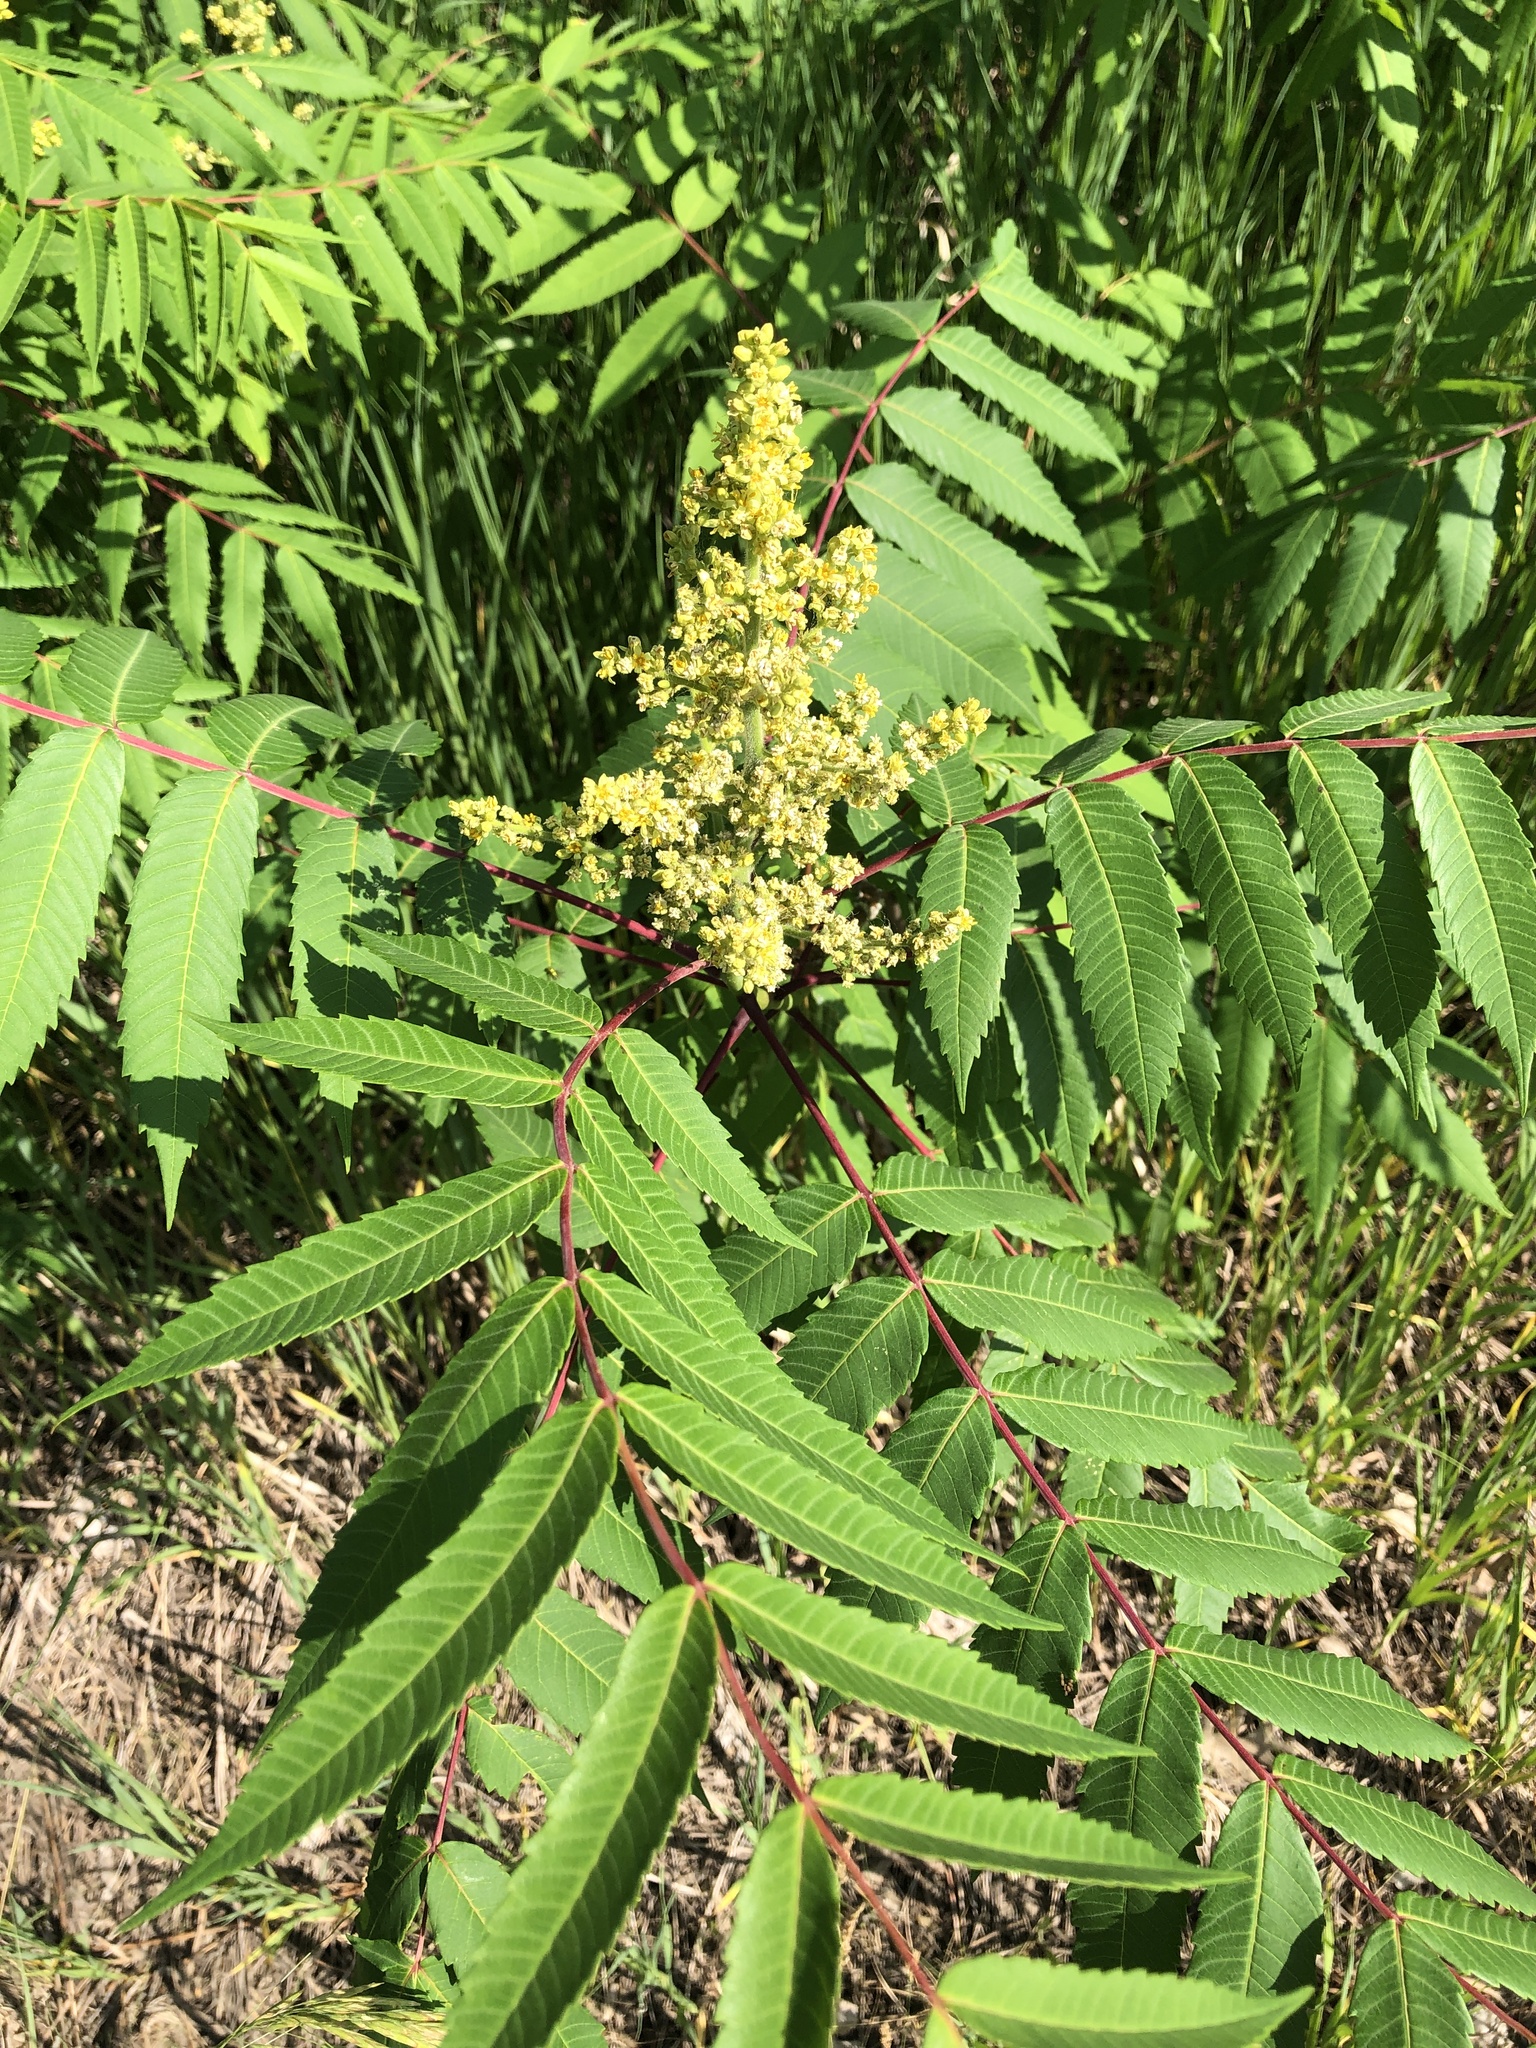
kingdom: Plantae
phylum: Tracheophyta
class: Magnoliopsida
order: Sapindales
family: Anacardiaceae
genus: Rhus
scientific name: Rhus glabra
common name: Scarlet sumac
